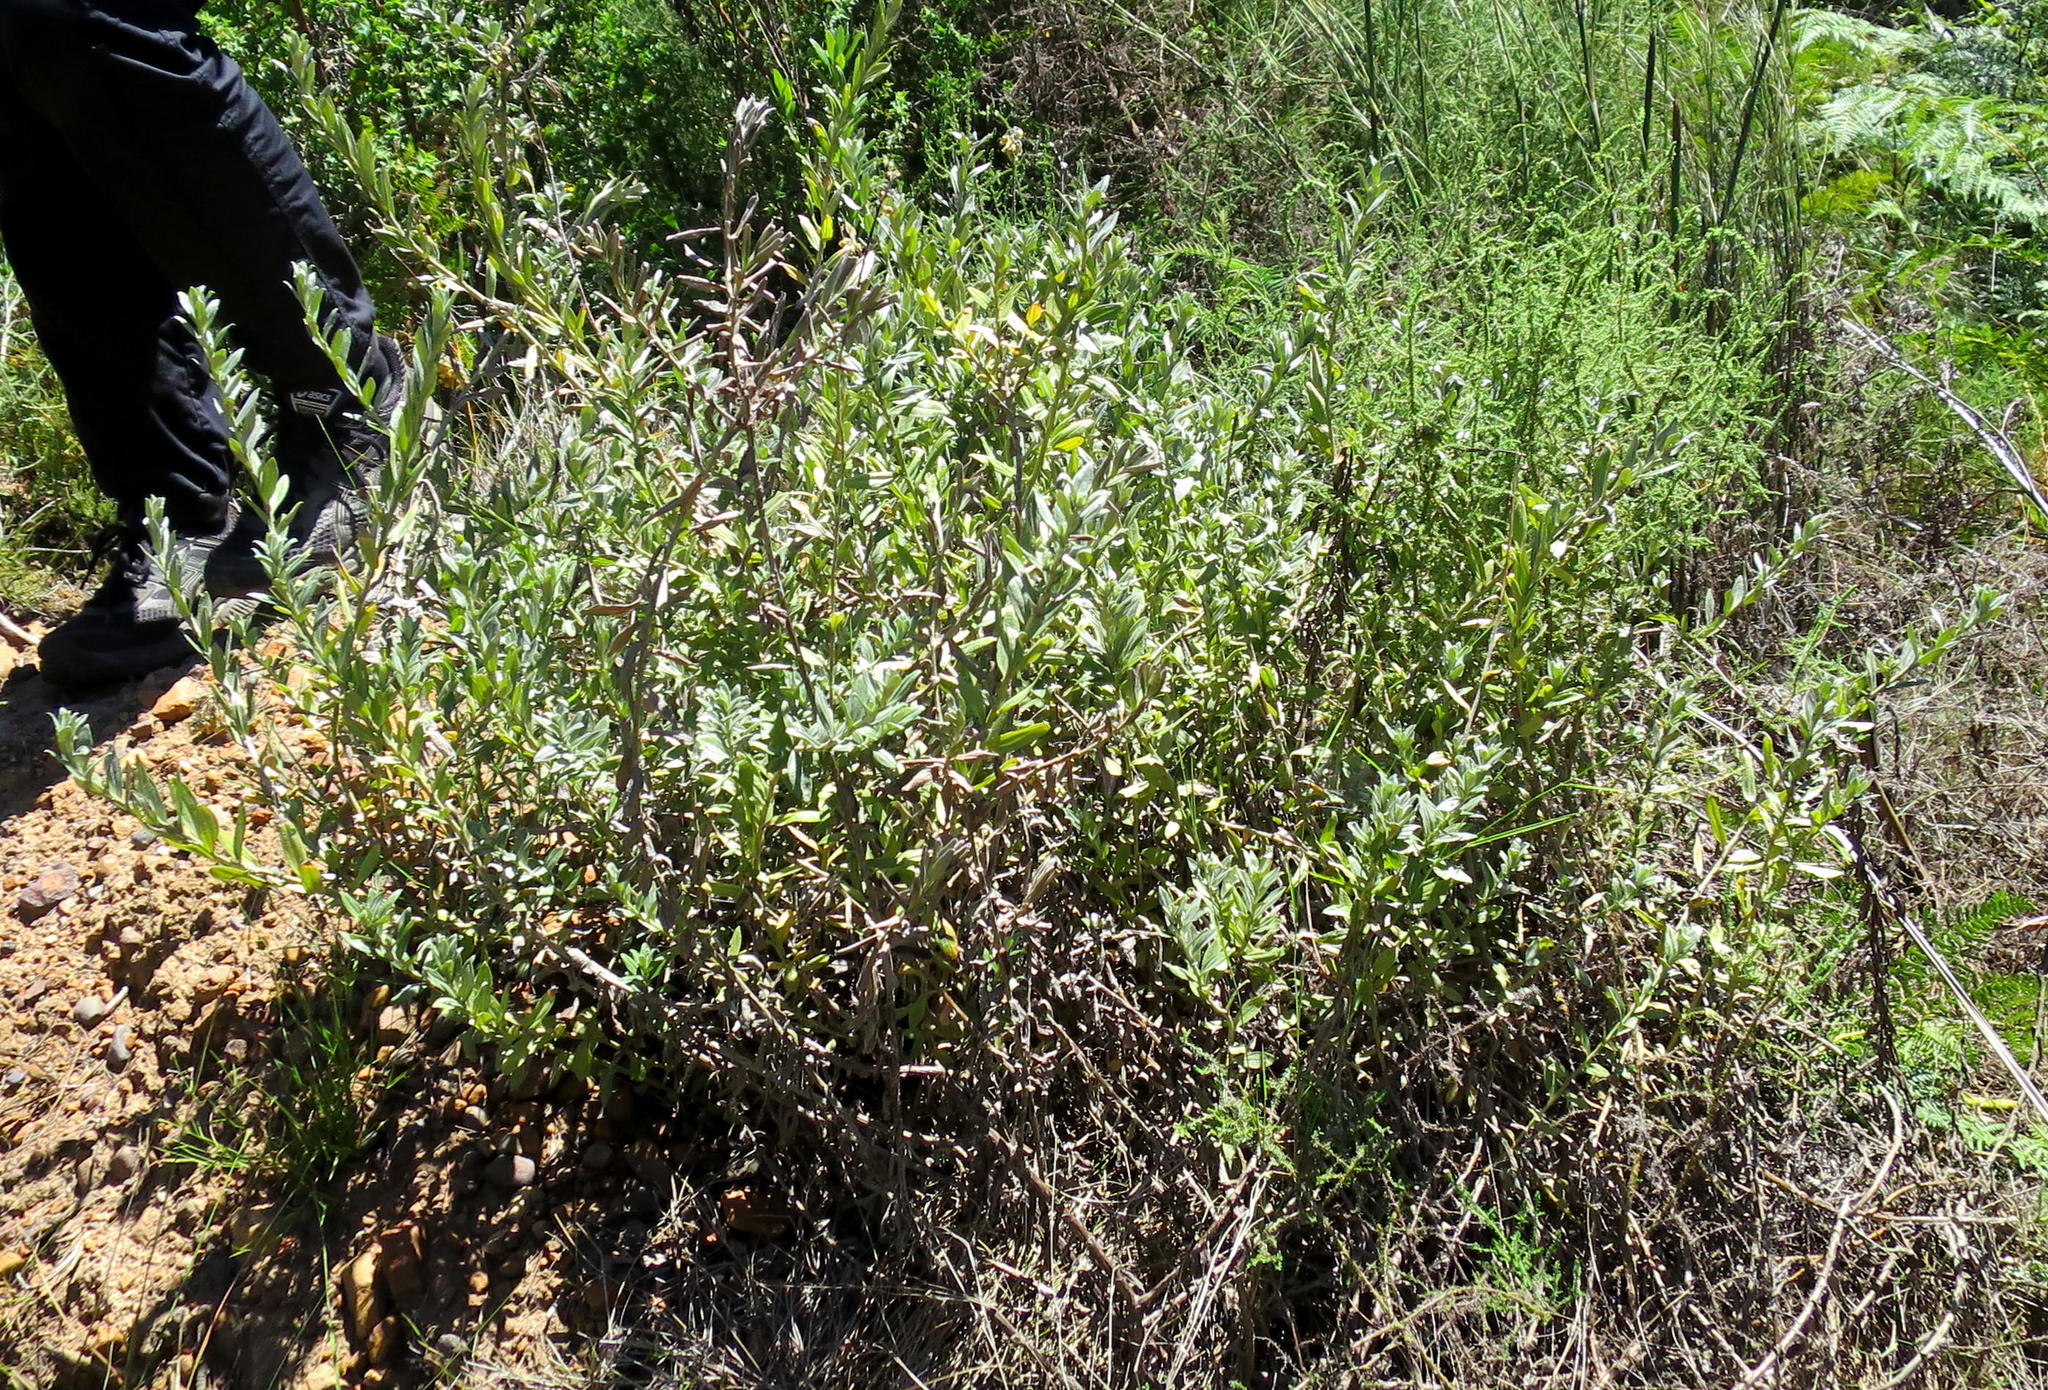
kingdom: Plantae
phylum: Tracheophyta
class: Magnoliopsida
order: Asterales
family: Asteraceae
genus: Helichrysum
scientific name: Helichrysum tenuiculum
